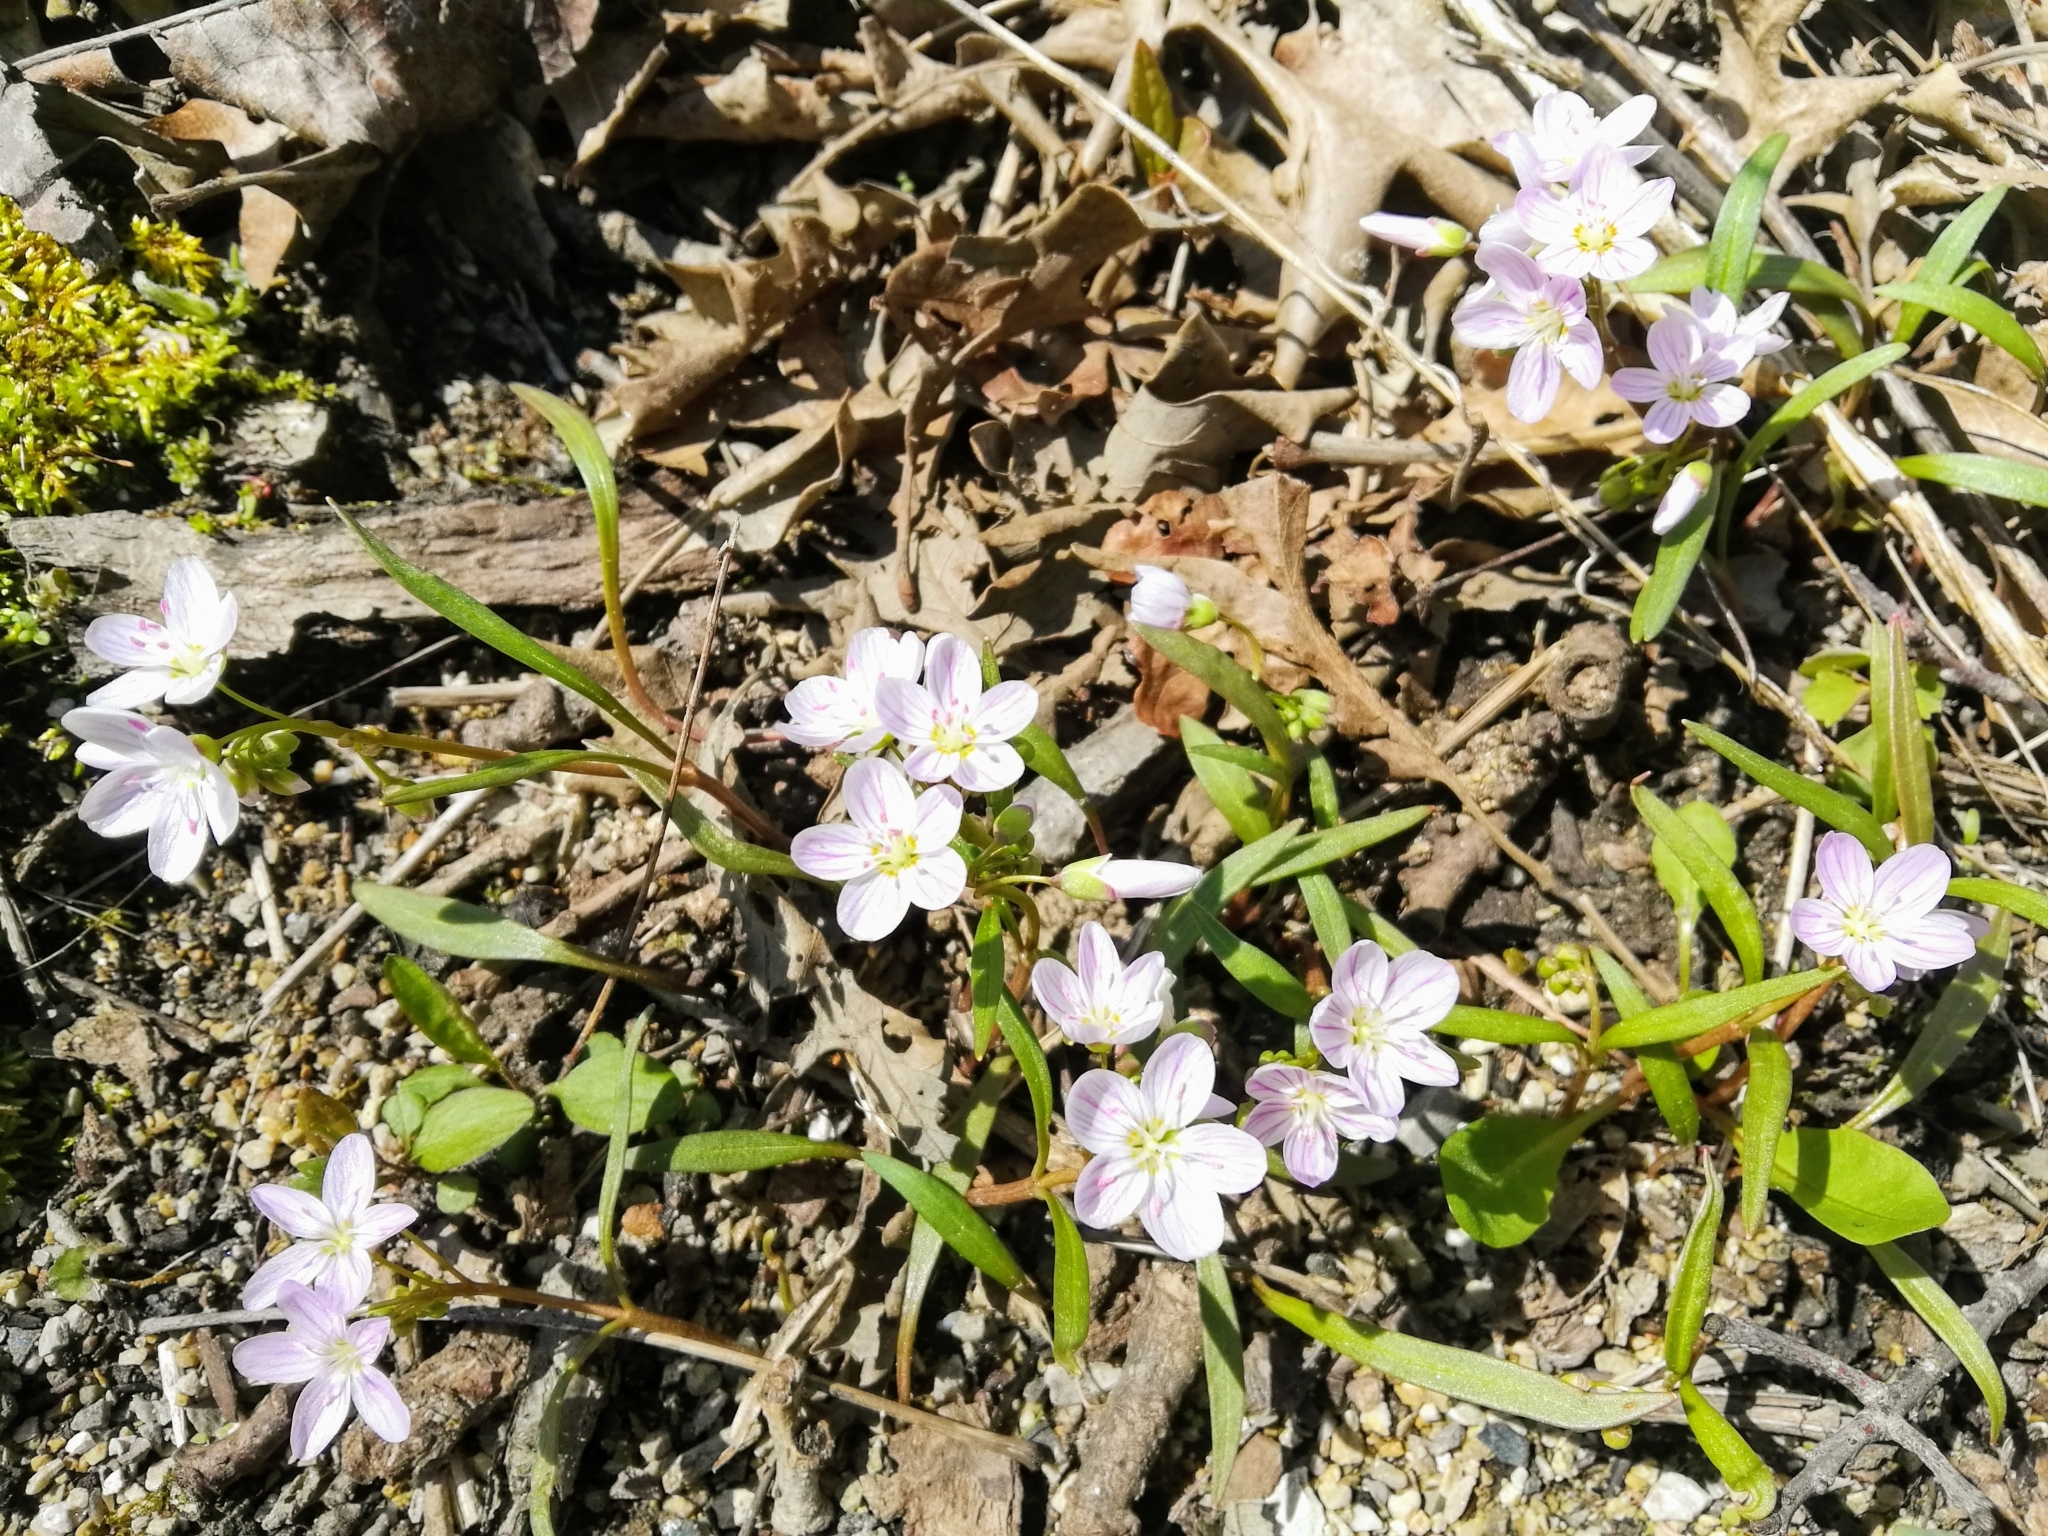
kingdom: Plantae
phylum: Tracheophyta
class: Magnoliopsida
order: Caryophyllales
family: Montiaceae
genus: Claytonia
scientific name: Claytonia virginica
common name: Virginia springbeauty
